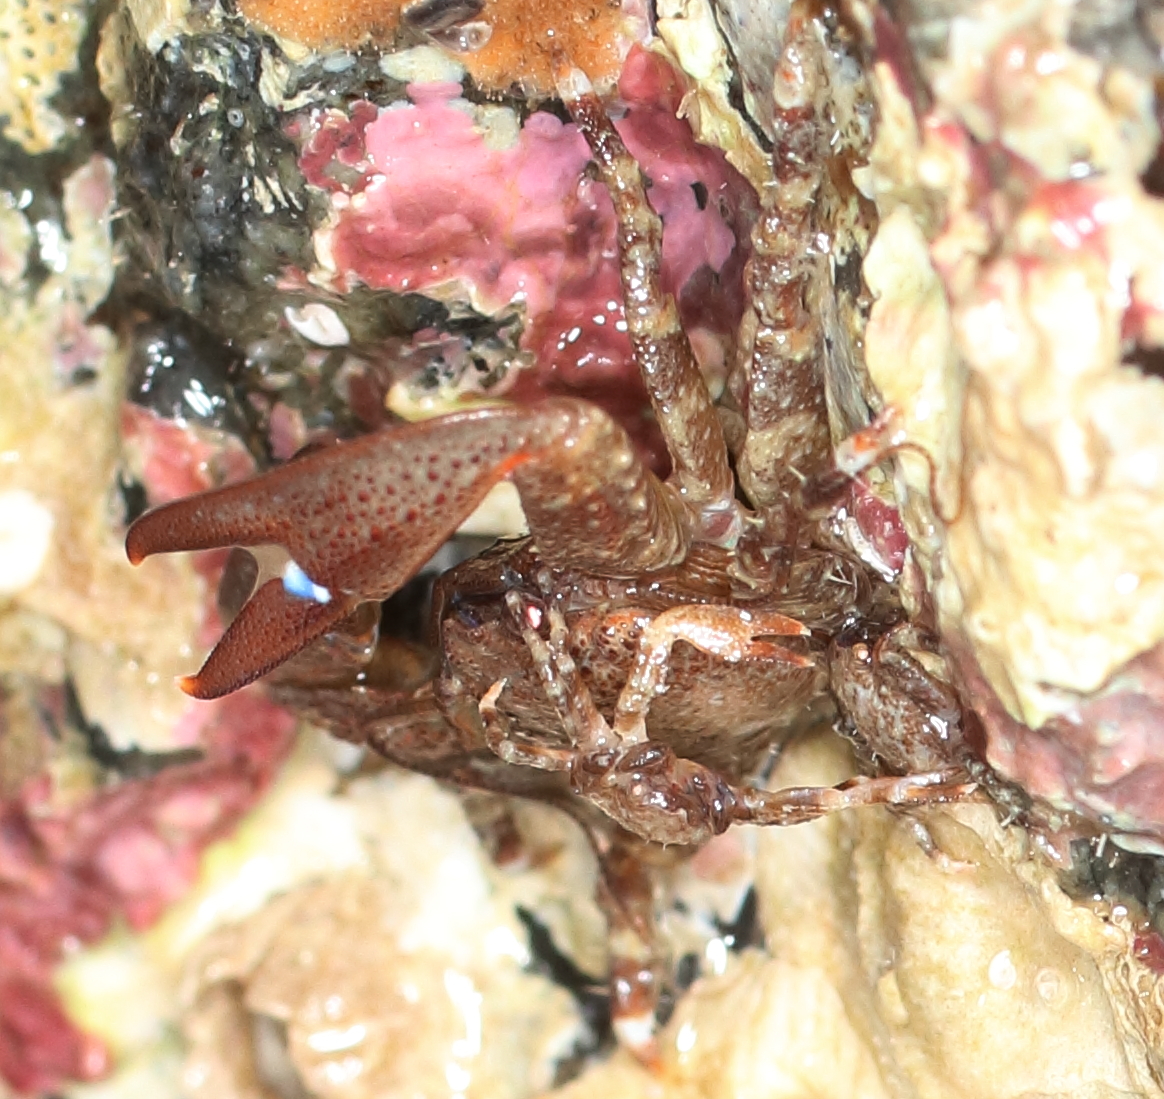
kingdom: Animalia
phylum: Arthropoda
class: Malacostraca
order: Decapoda
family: Porcellanidae
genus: Petrolisthes
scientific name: Petrolisthes eriomerus
